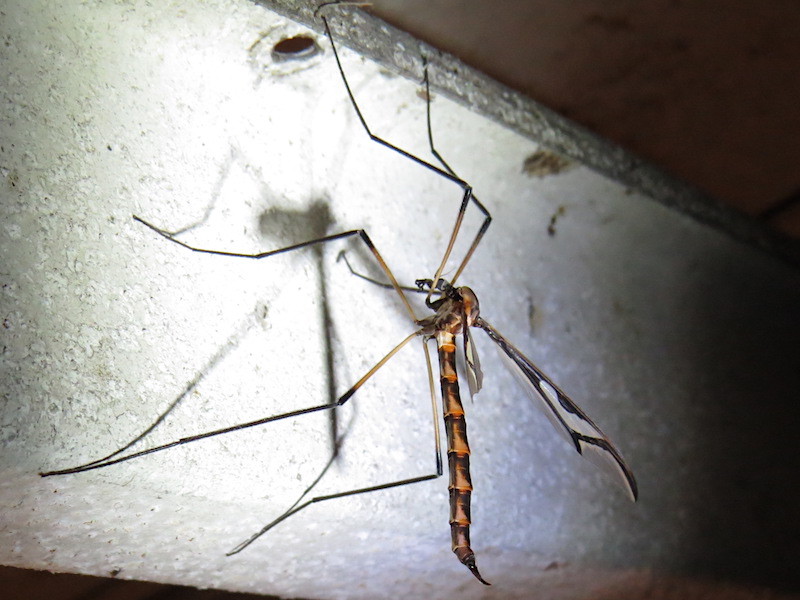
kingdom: Animalia
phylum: Arthropoda
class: Insecta
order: Diptera
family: Pediciidae
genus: Pedicia
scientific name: Pedicia albivitta
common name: Giant eastern crane fly
